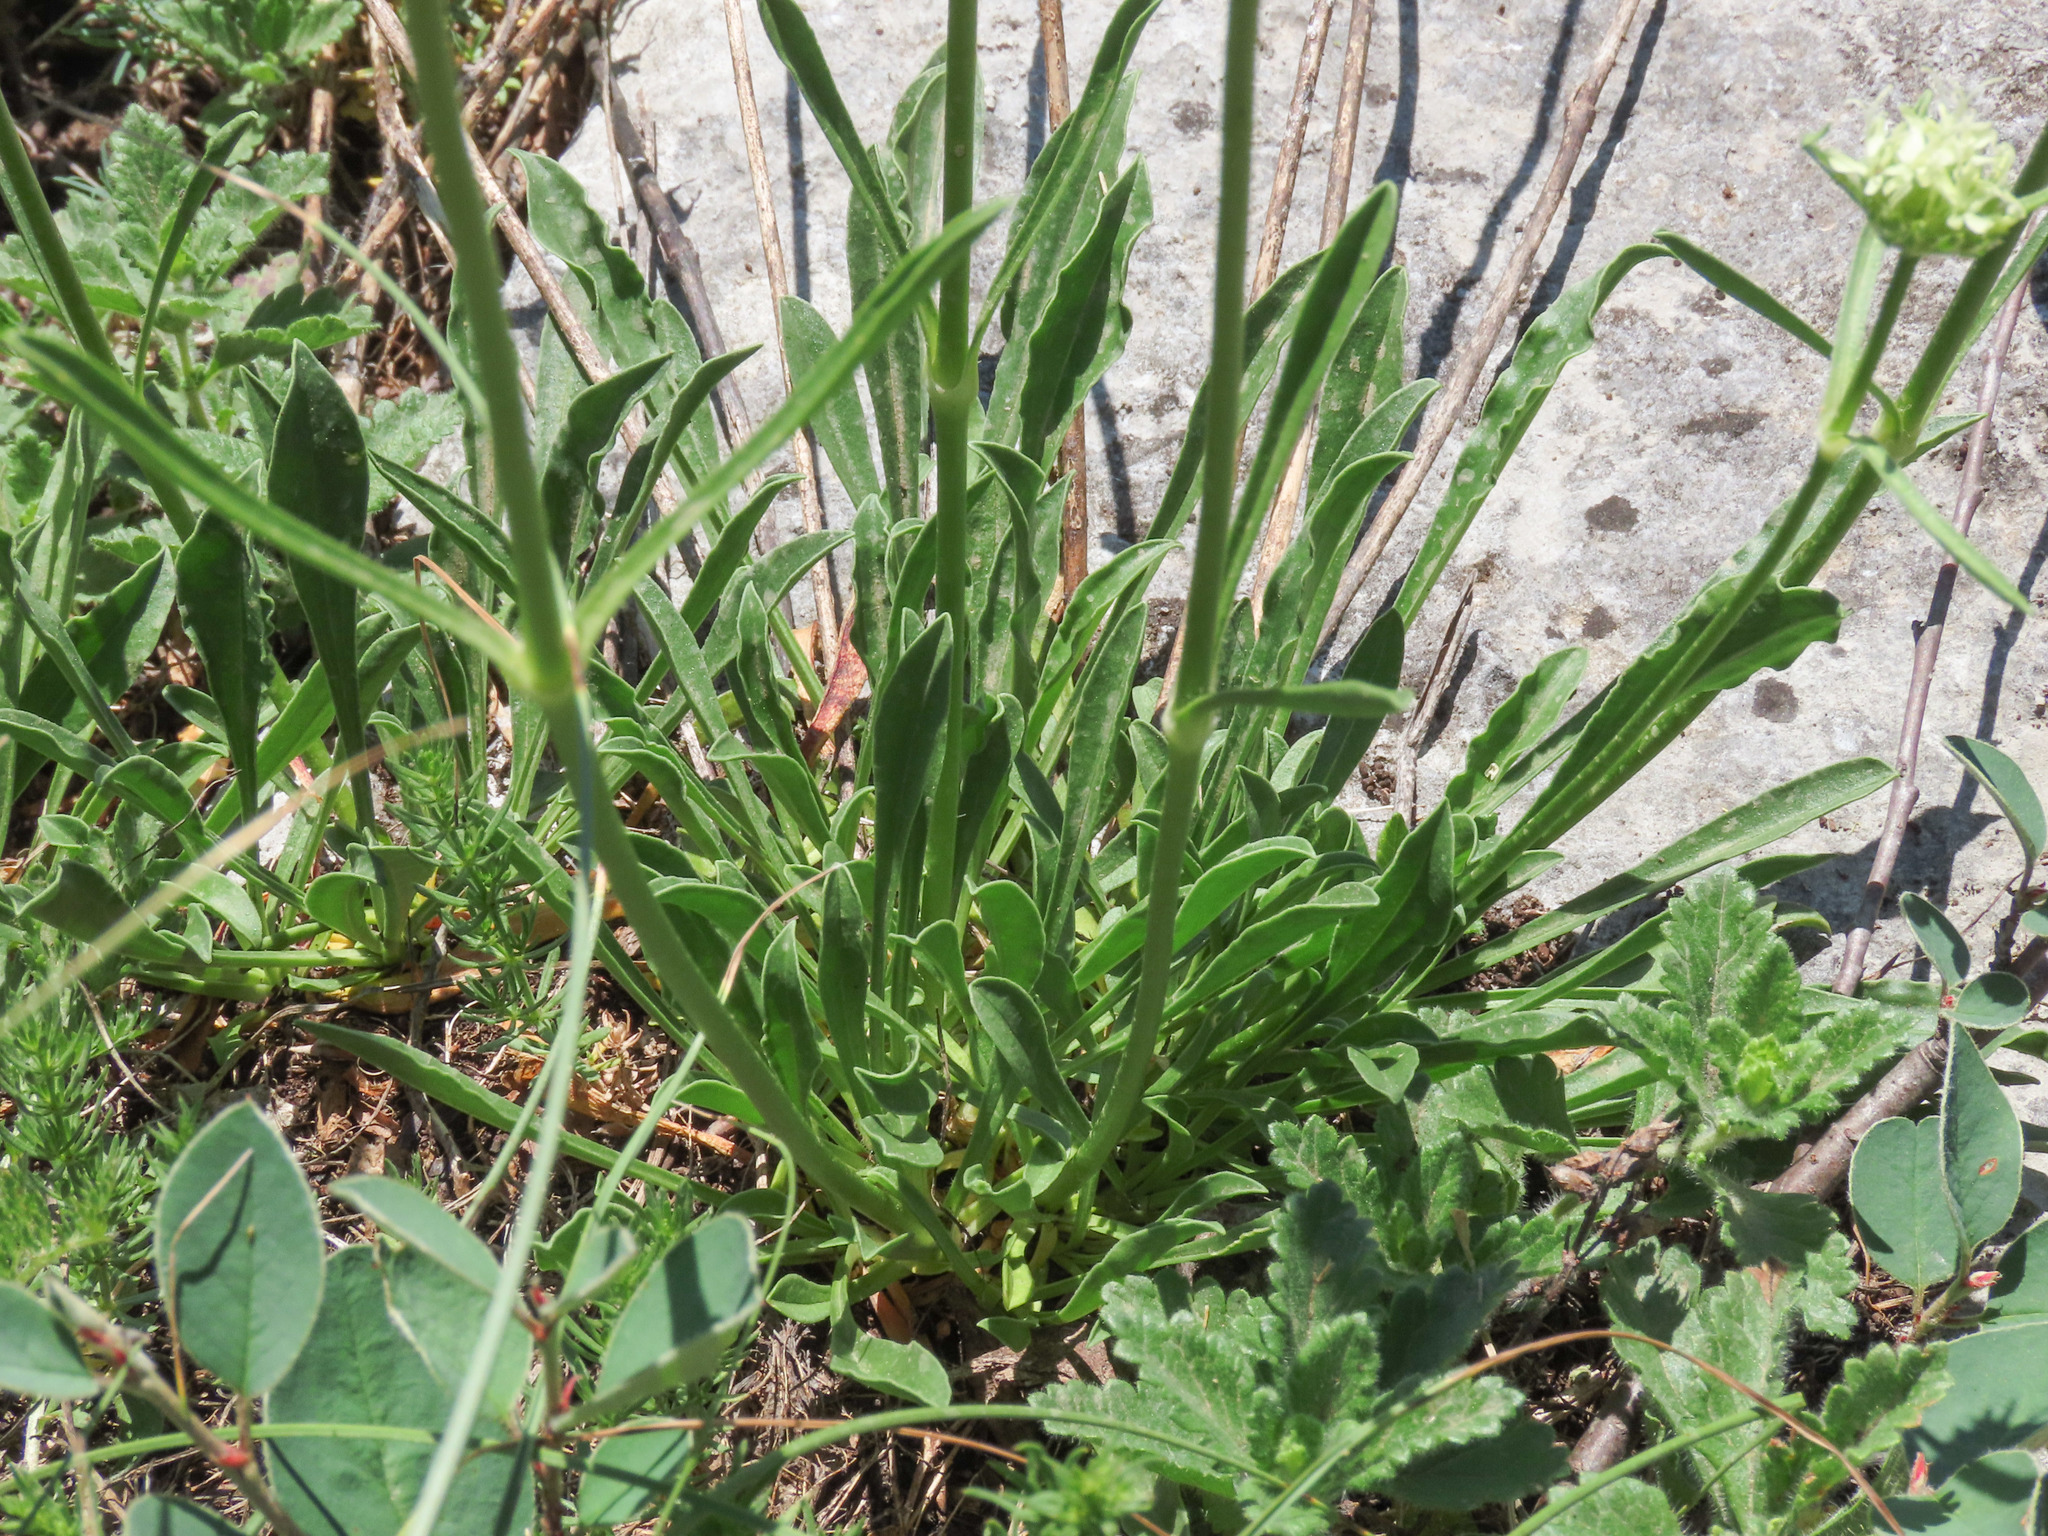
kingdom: Plantae
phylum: Tracheophyta
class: Magnoliopsida
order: Caryophyllales
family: Caryophyllaceae
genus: Saponaria
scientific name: Saponaria bellidifolia
